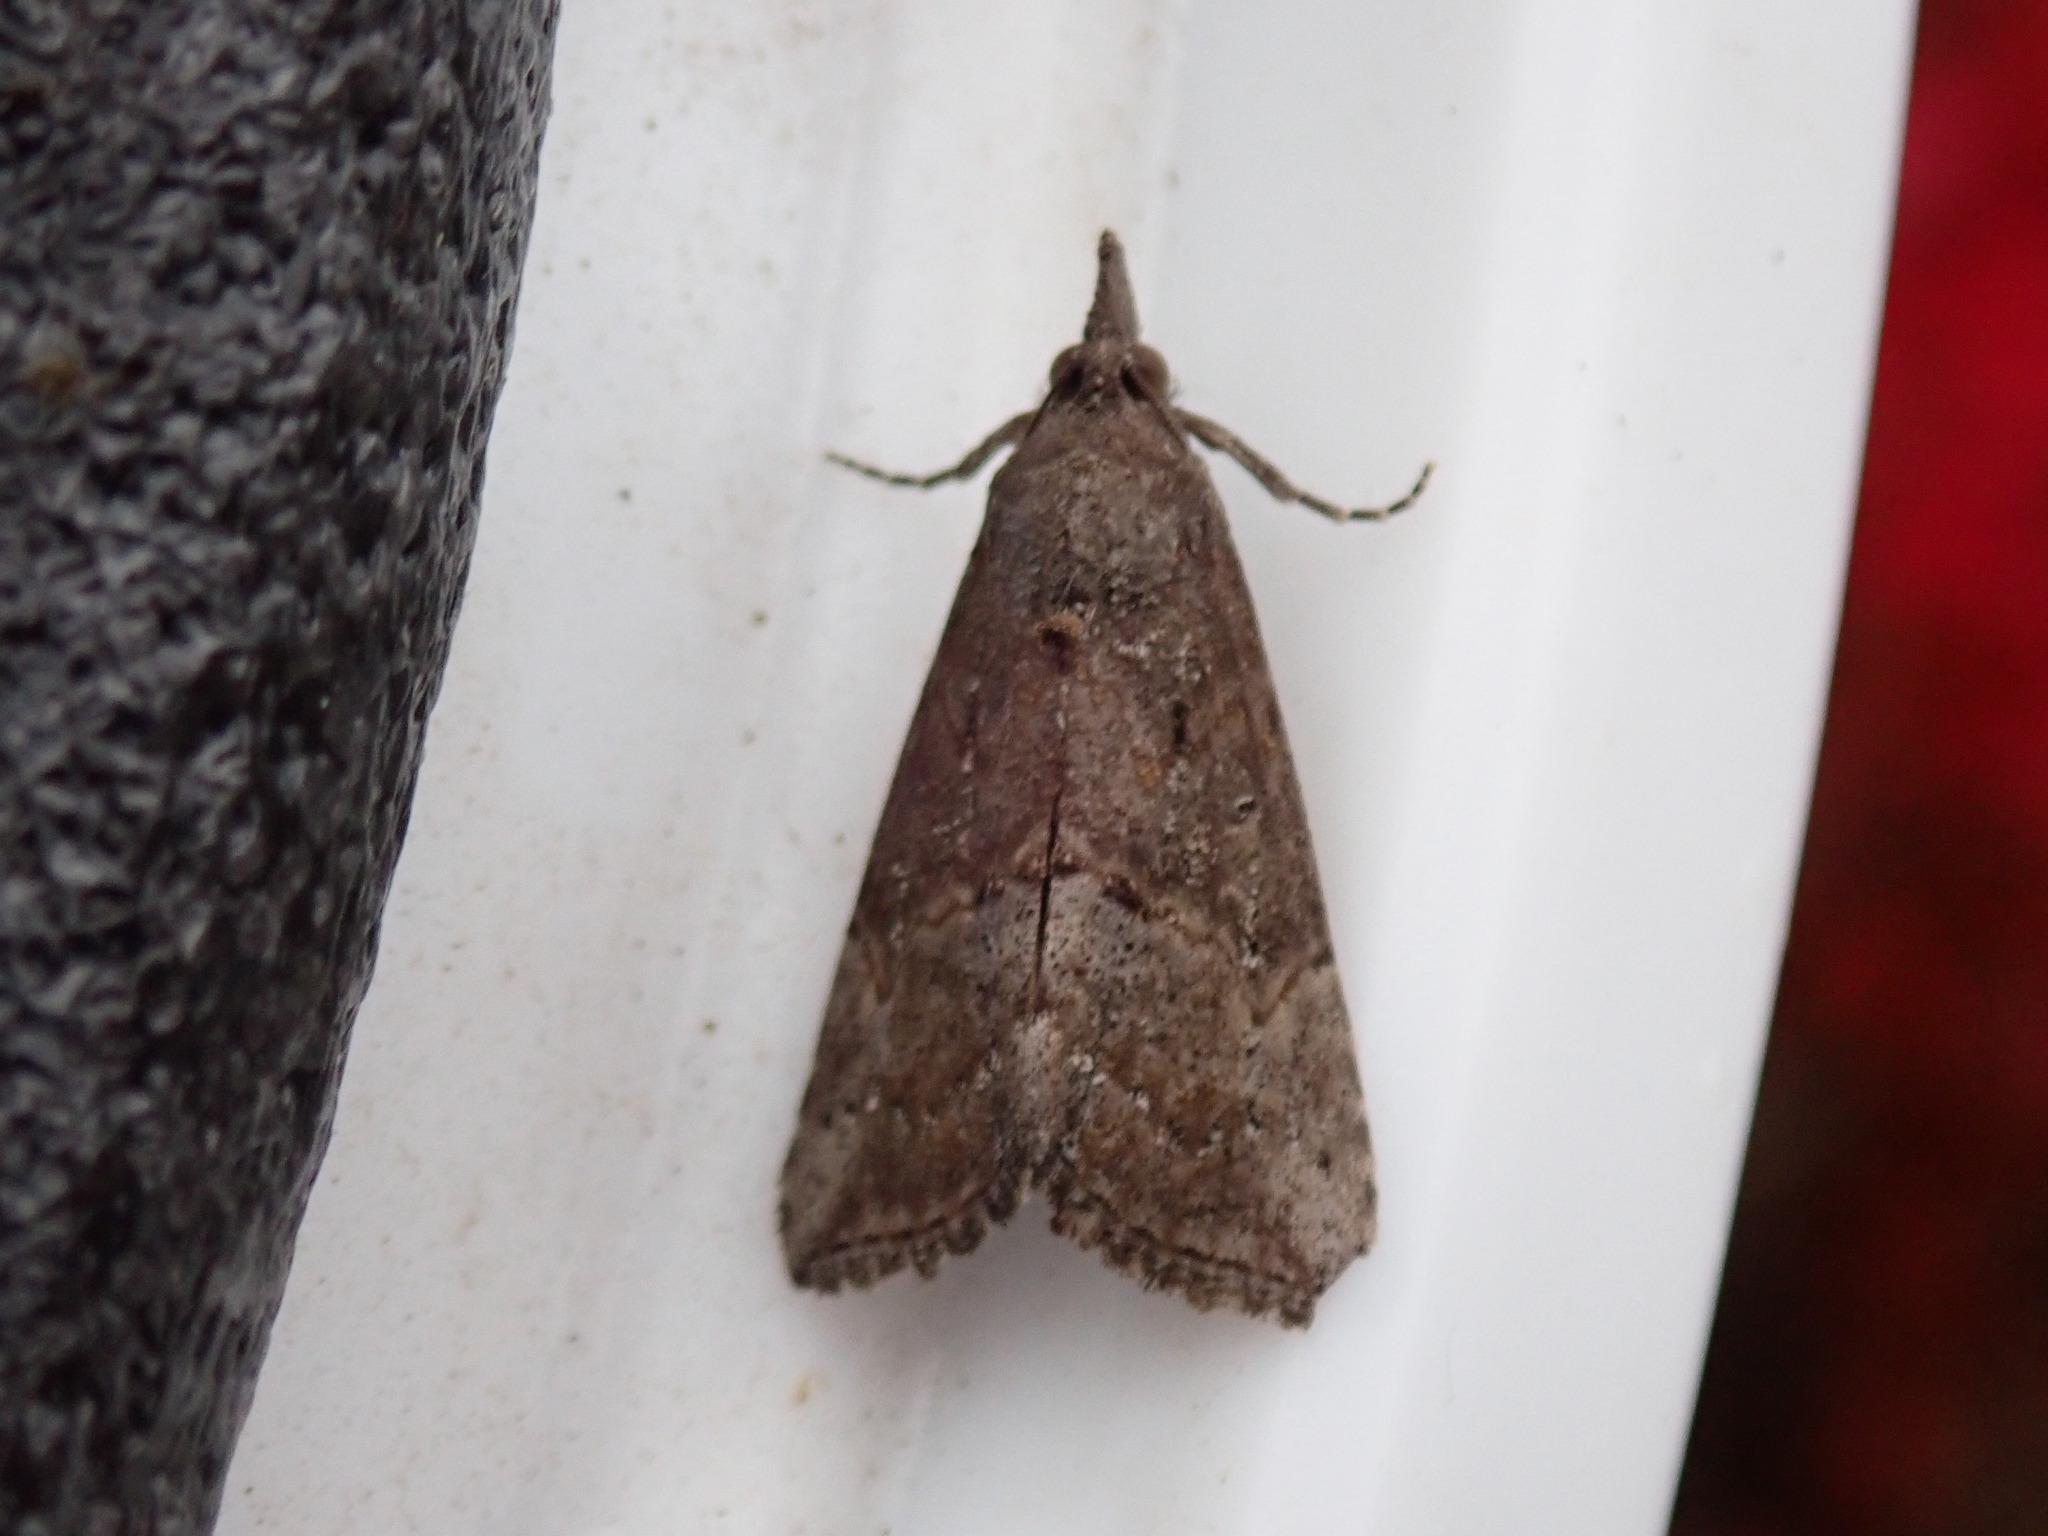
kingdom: Animalia
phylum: Arthropoda
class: Insecta
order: Lepidoptera
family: Erebidae
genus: Hypena
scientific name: Hypena scabra
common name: Green cloverworm
